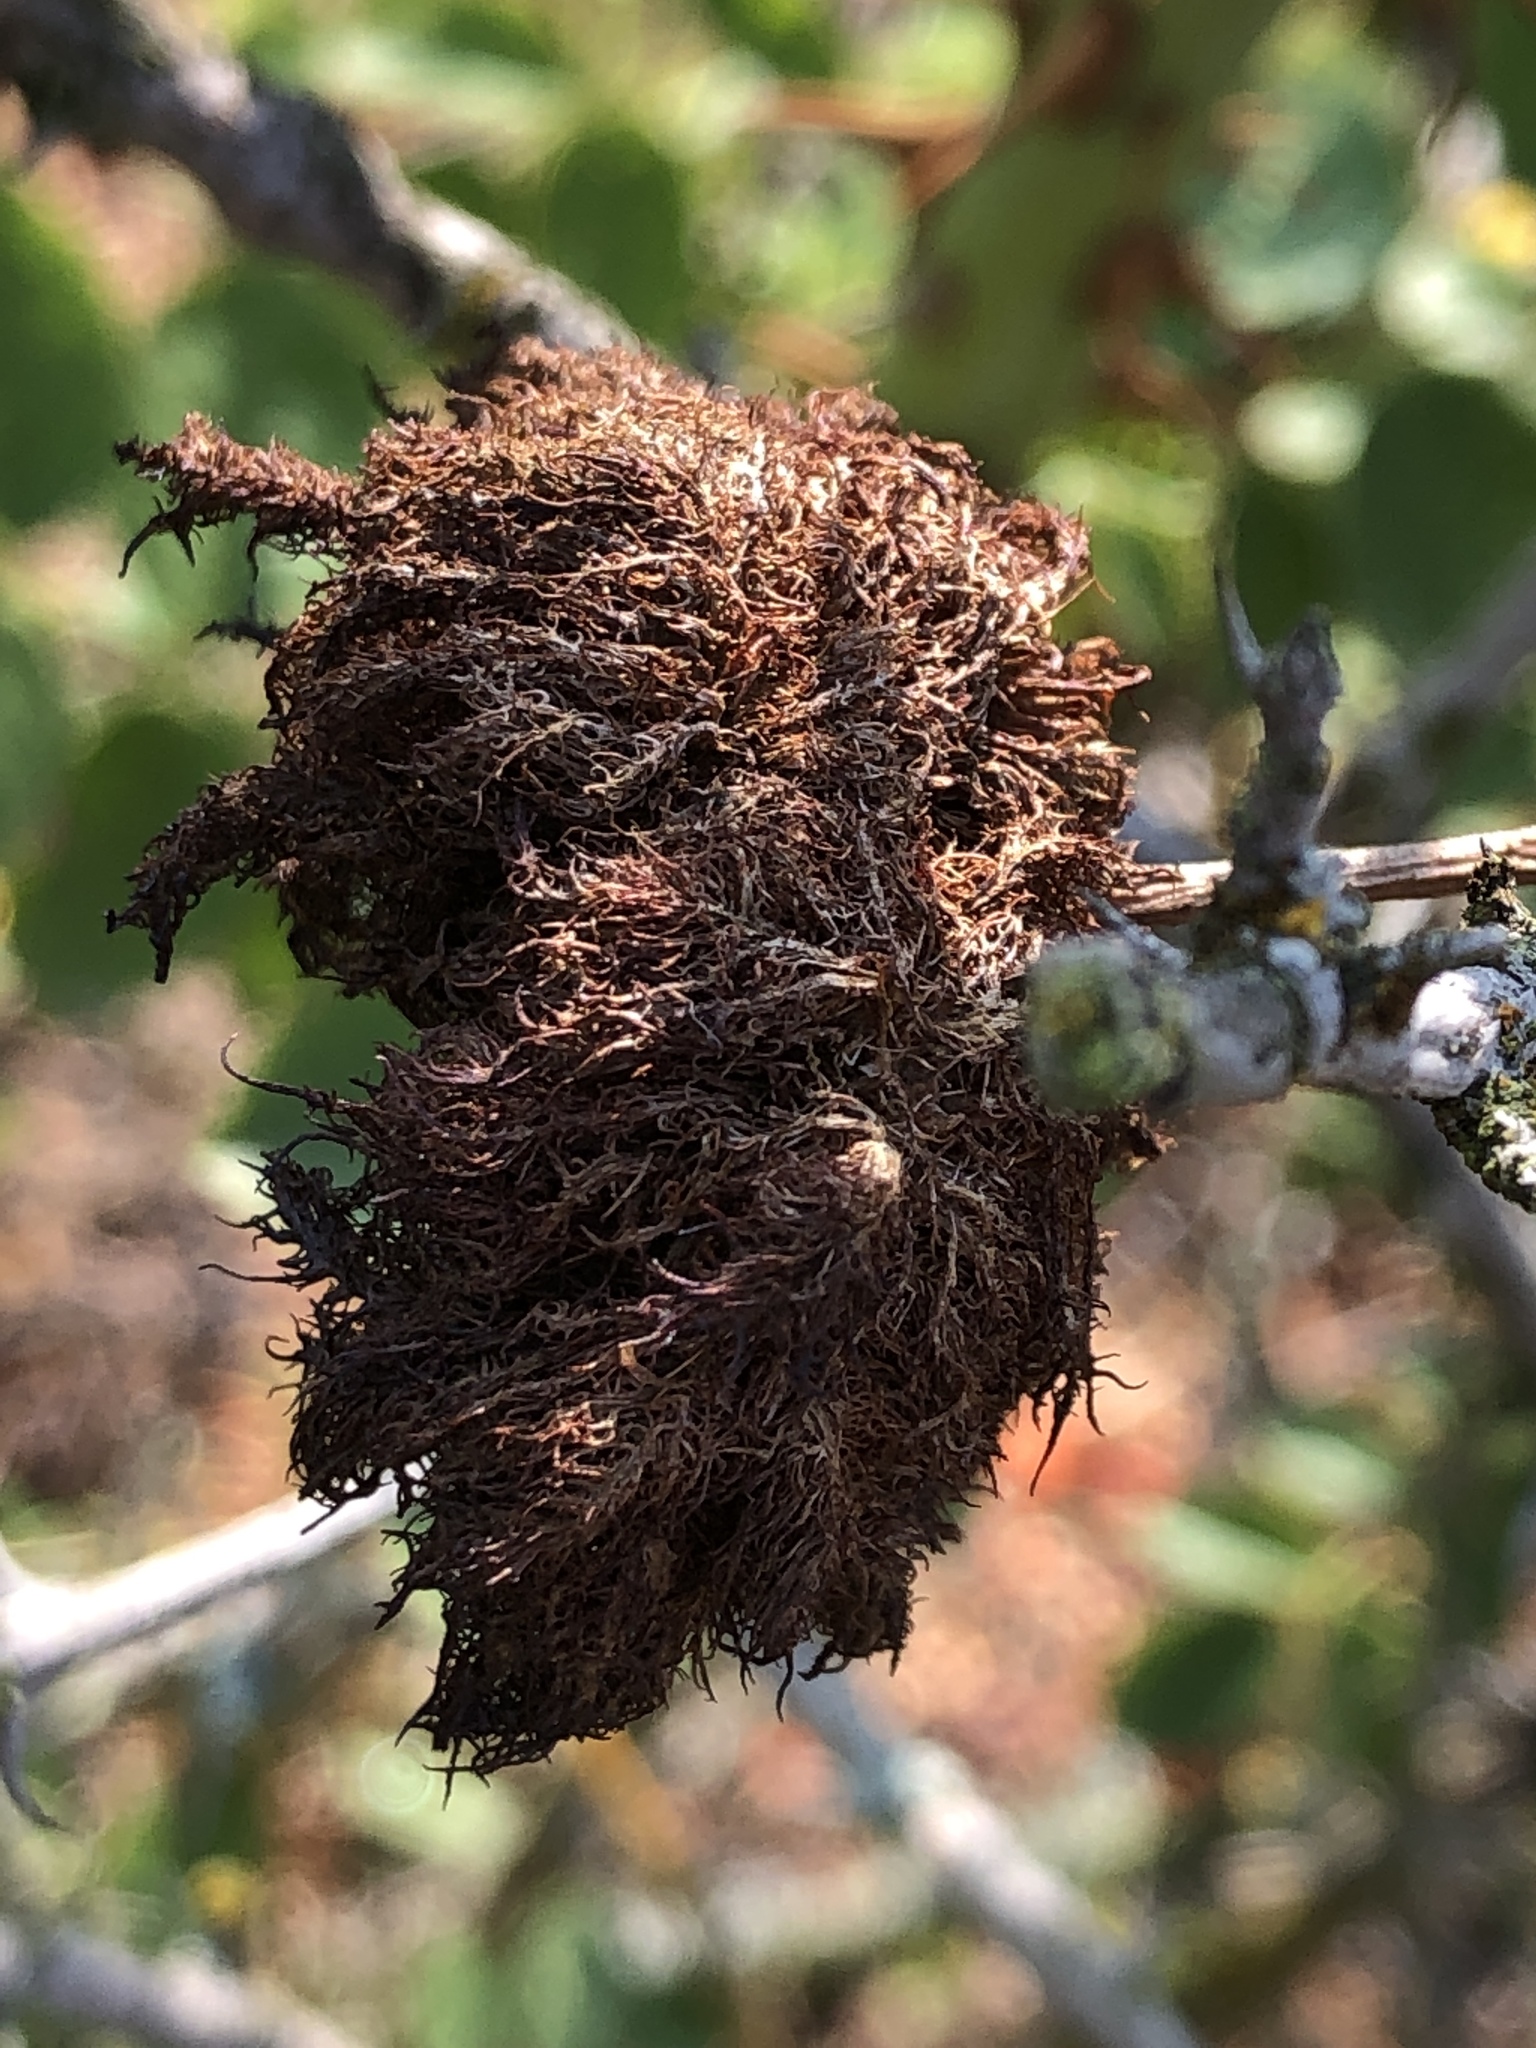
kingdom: Animalia
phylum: Arthropoda
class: Insecta
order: Hymenoptera
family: Cynipidae
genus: Diplolepis
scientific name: Diplolepis rosae
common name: Bedeguar gall
